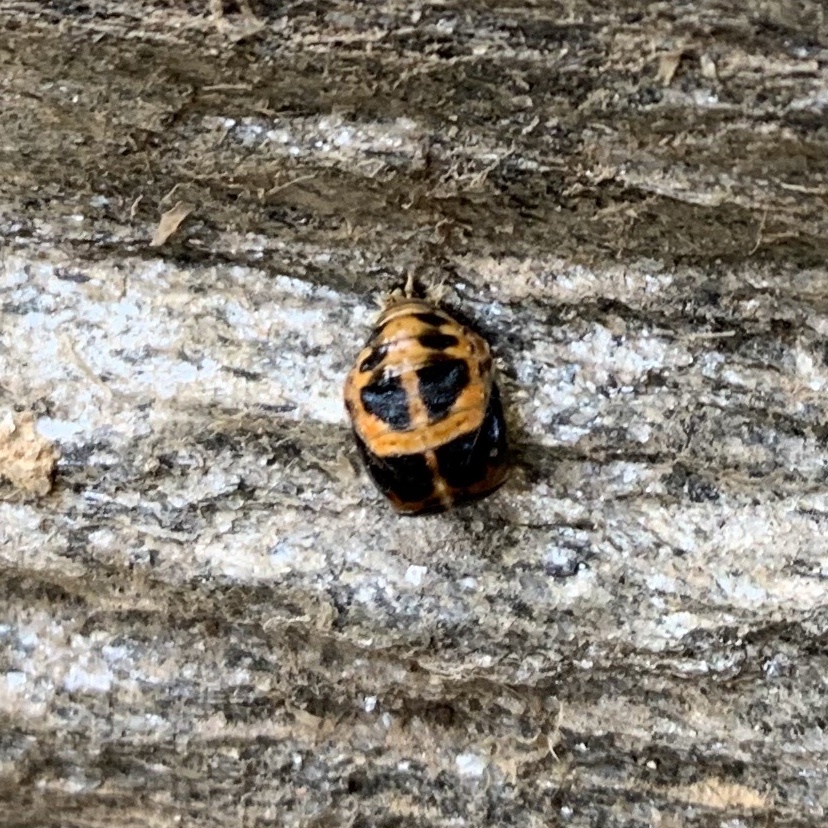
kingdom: Animalia
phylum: Arthropoda
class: Insecta
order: Coleoptera
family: Coccinellidae
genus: Harmonia
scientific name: Harmonia axyridis
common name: Harlequin ladybird
